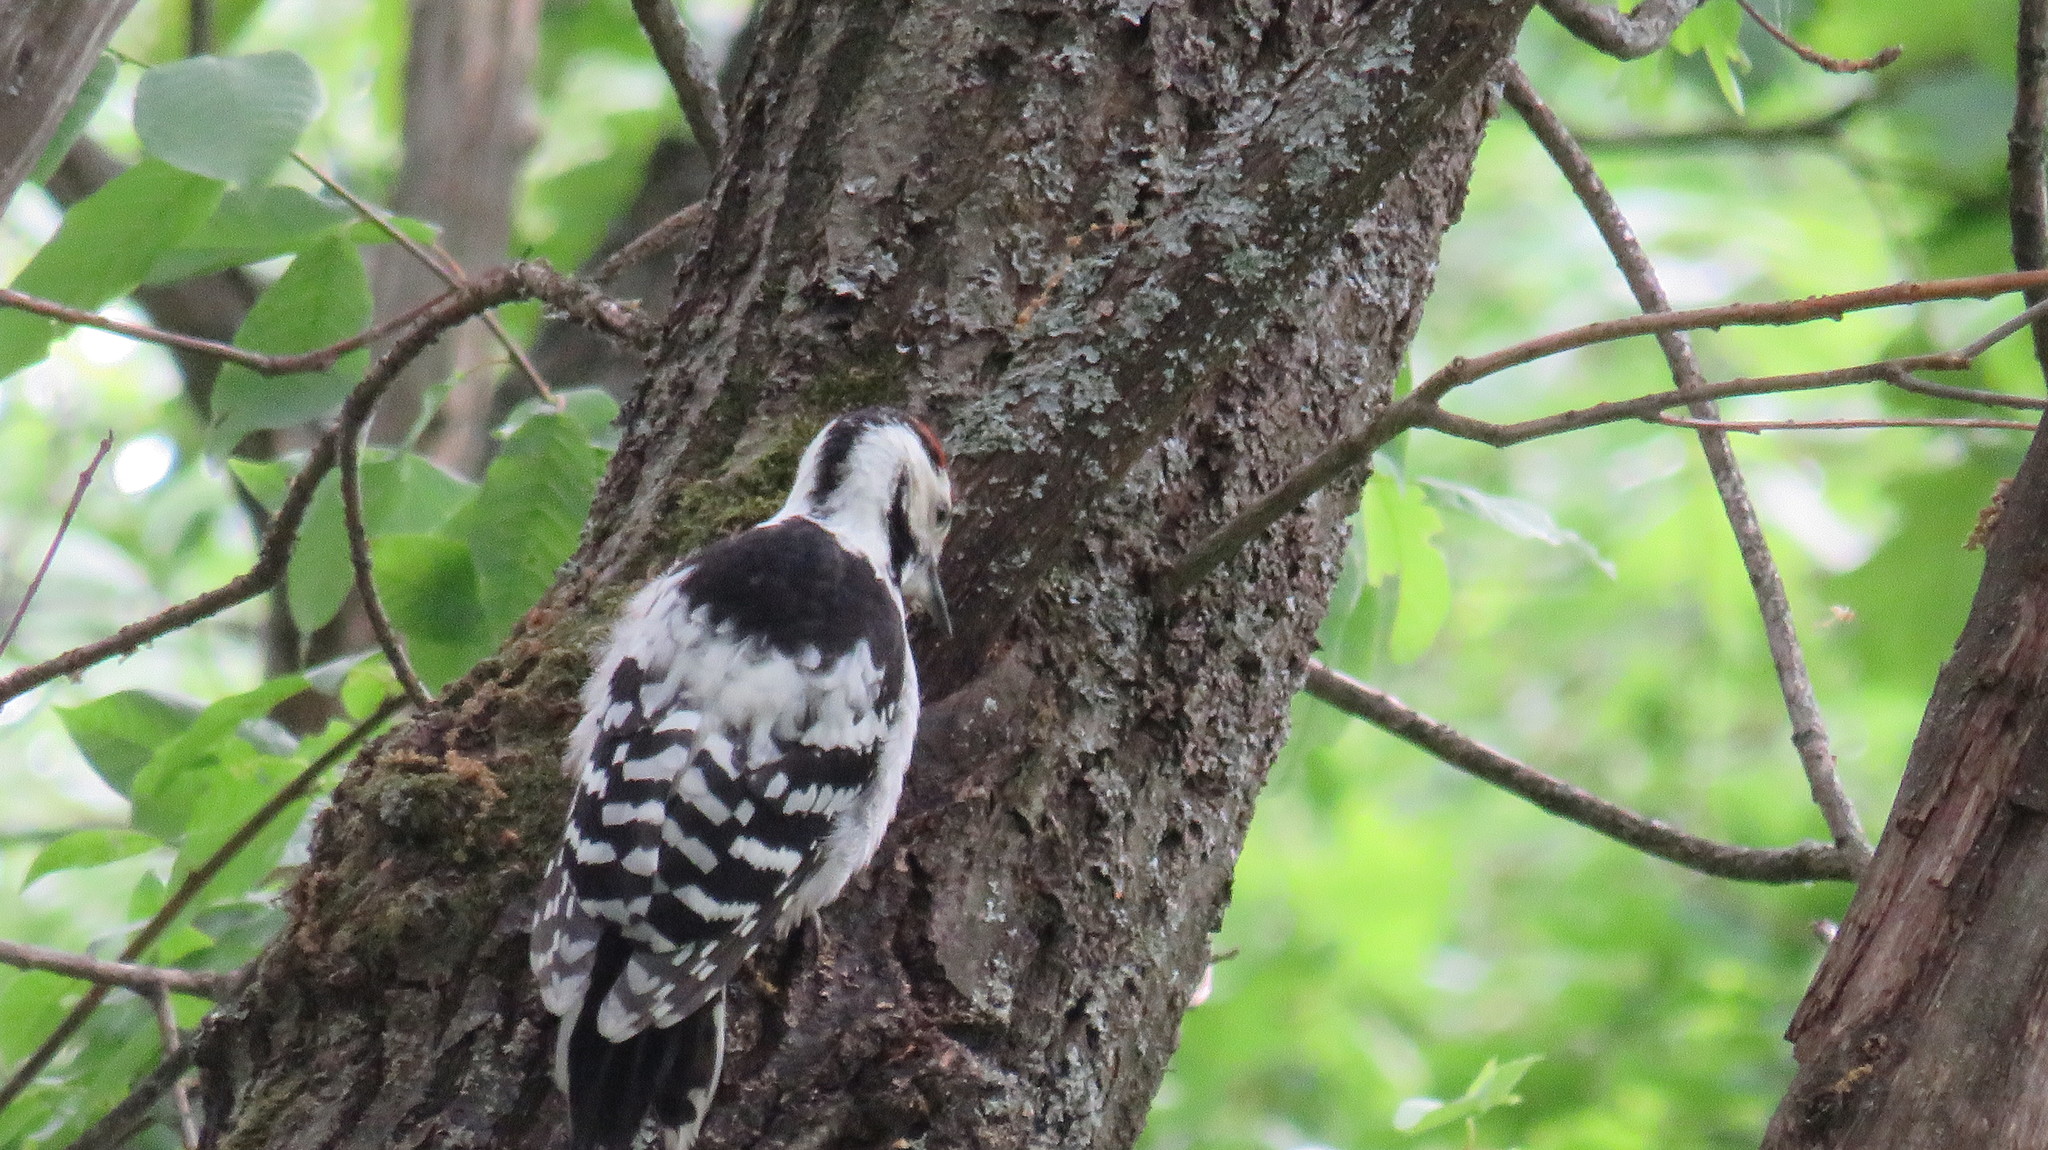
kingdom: Animalia
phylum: Chordata
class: Aves
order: Piciformes
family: Picidae
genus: Dendrocopos
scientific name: Dendrocopos leucotos
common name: White-backed woodpecker
